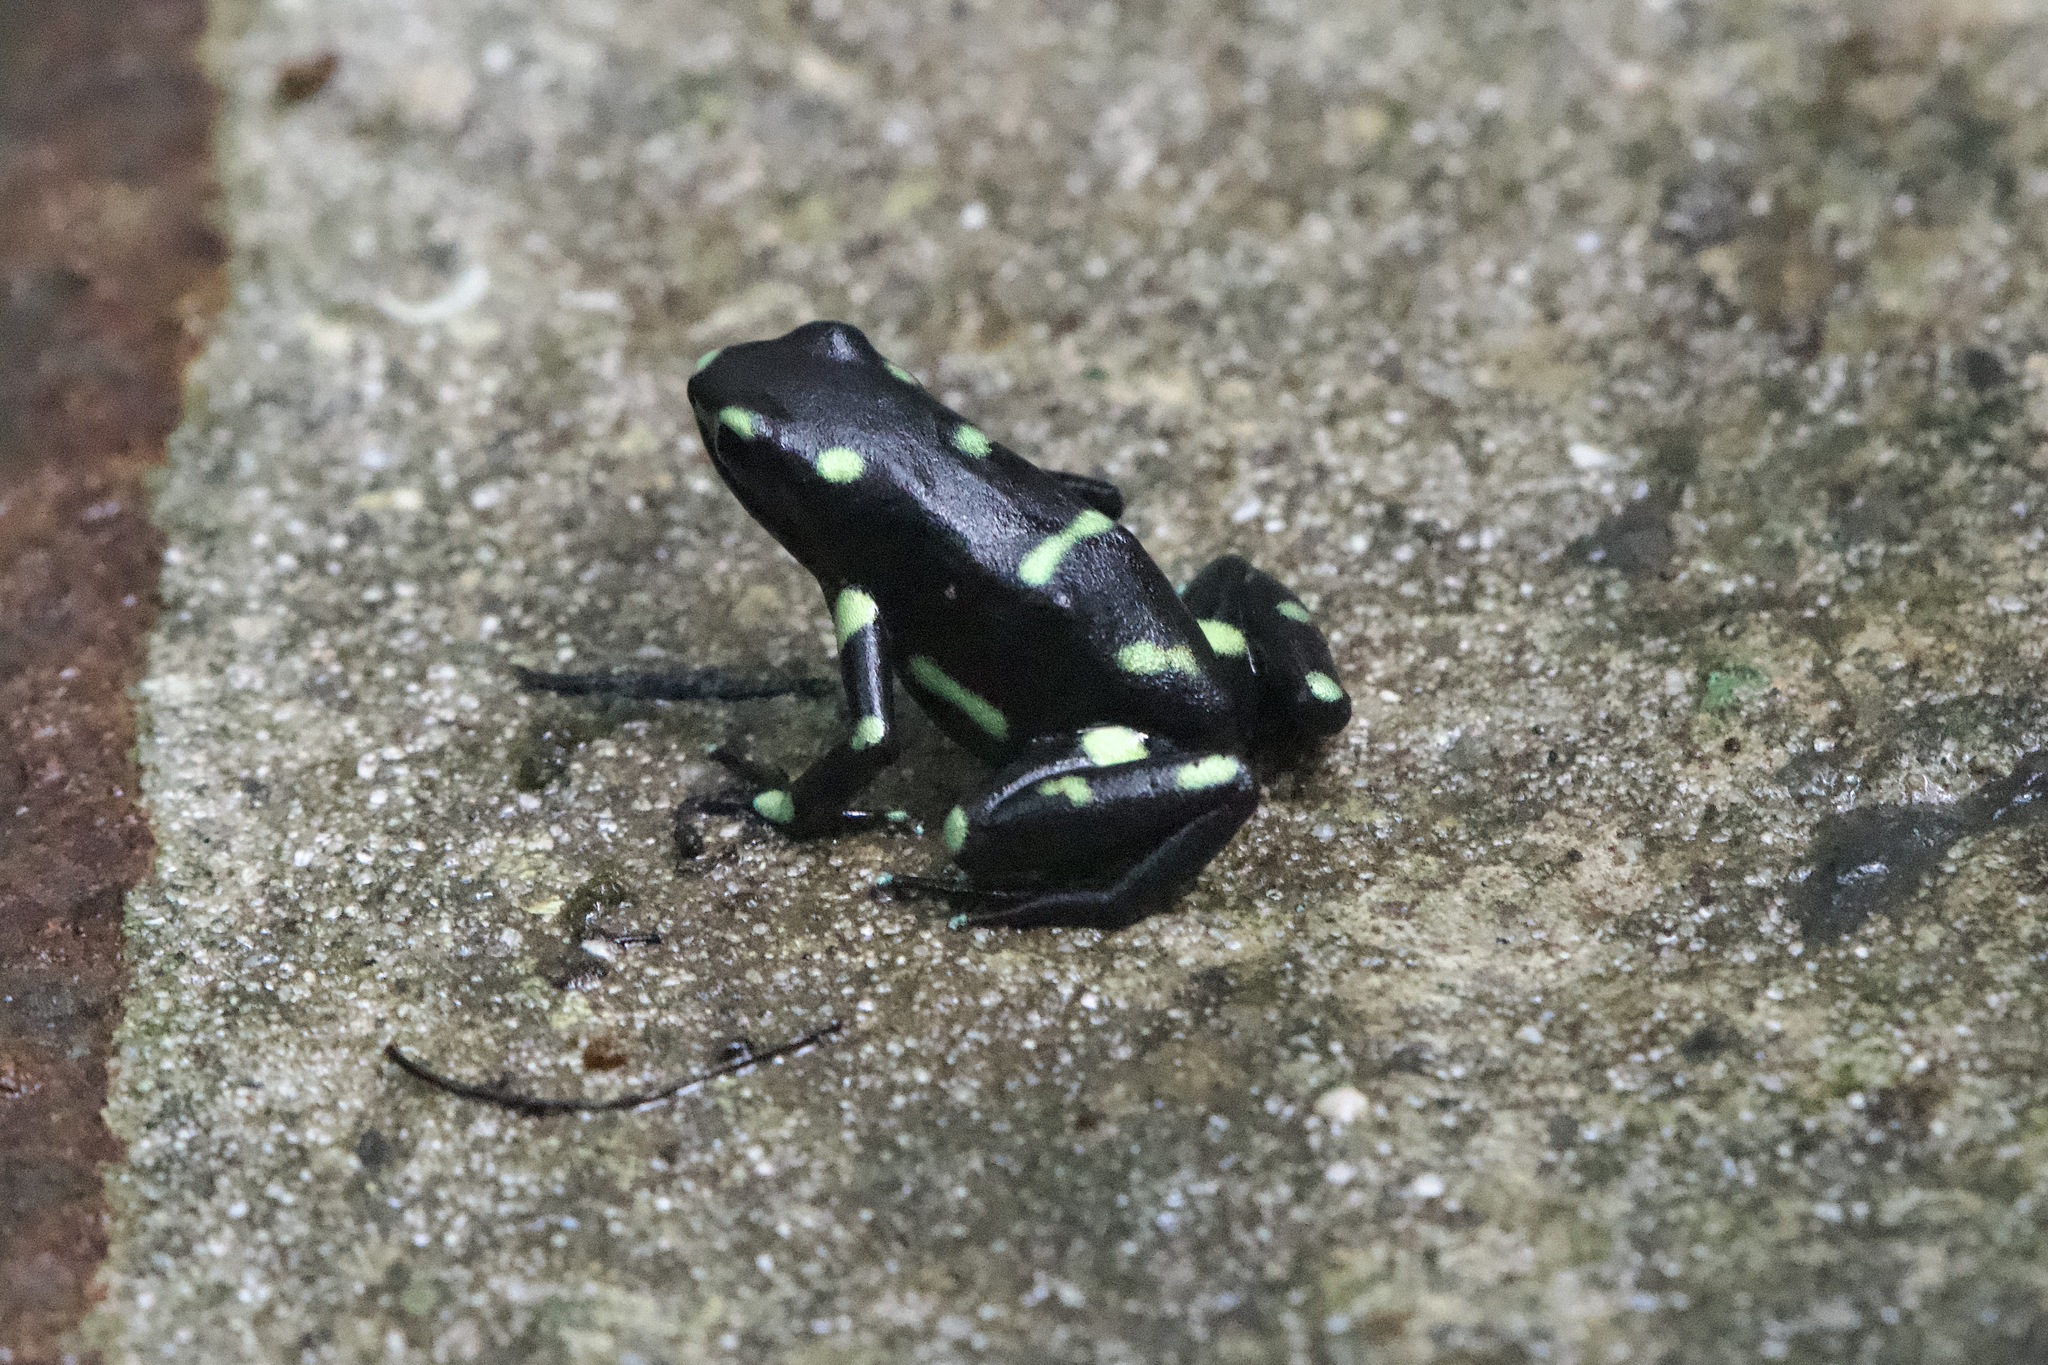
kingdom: Animalia
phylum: Chordata
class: Amphibia
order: Anura
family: Dendrobatidae
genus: Dendrobates
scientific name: Dendrobates auratus
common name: Green and black poison dart frog
